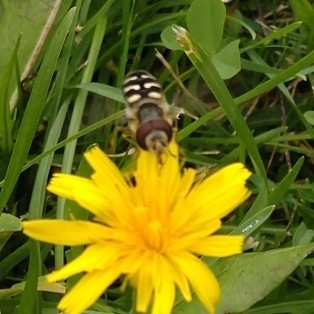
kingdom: Animalia
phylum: Arthropoda
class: Insecta
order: Diptera
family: Syrphidae
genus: Scaeva
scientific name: Scaeva pyrastri
